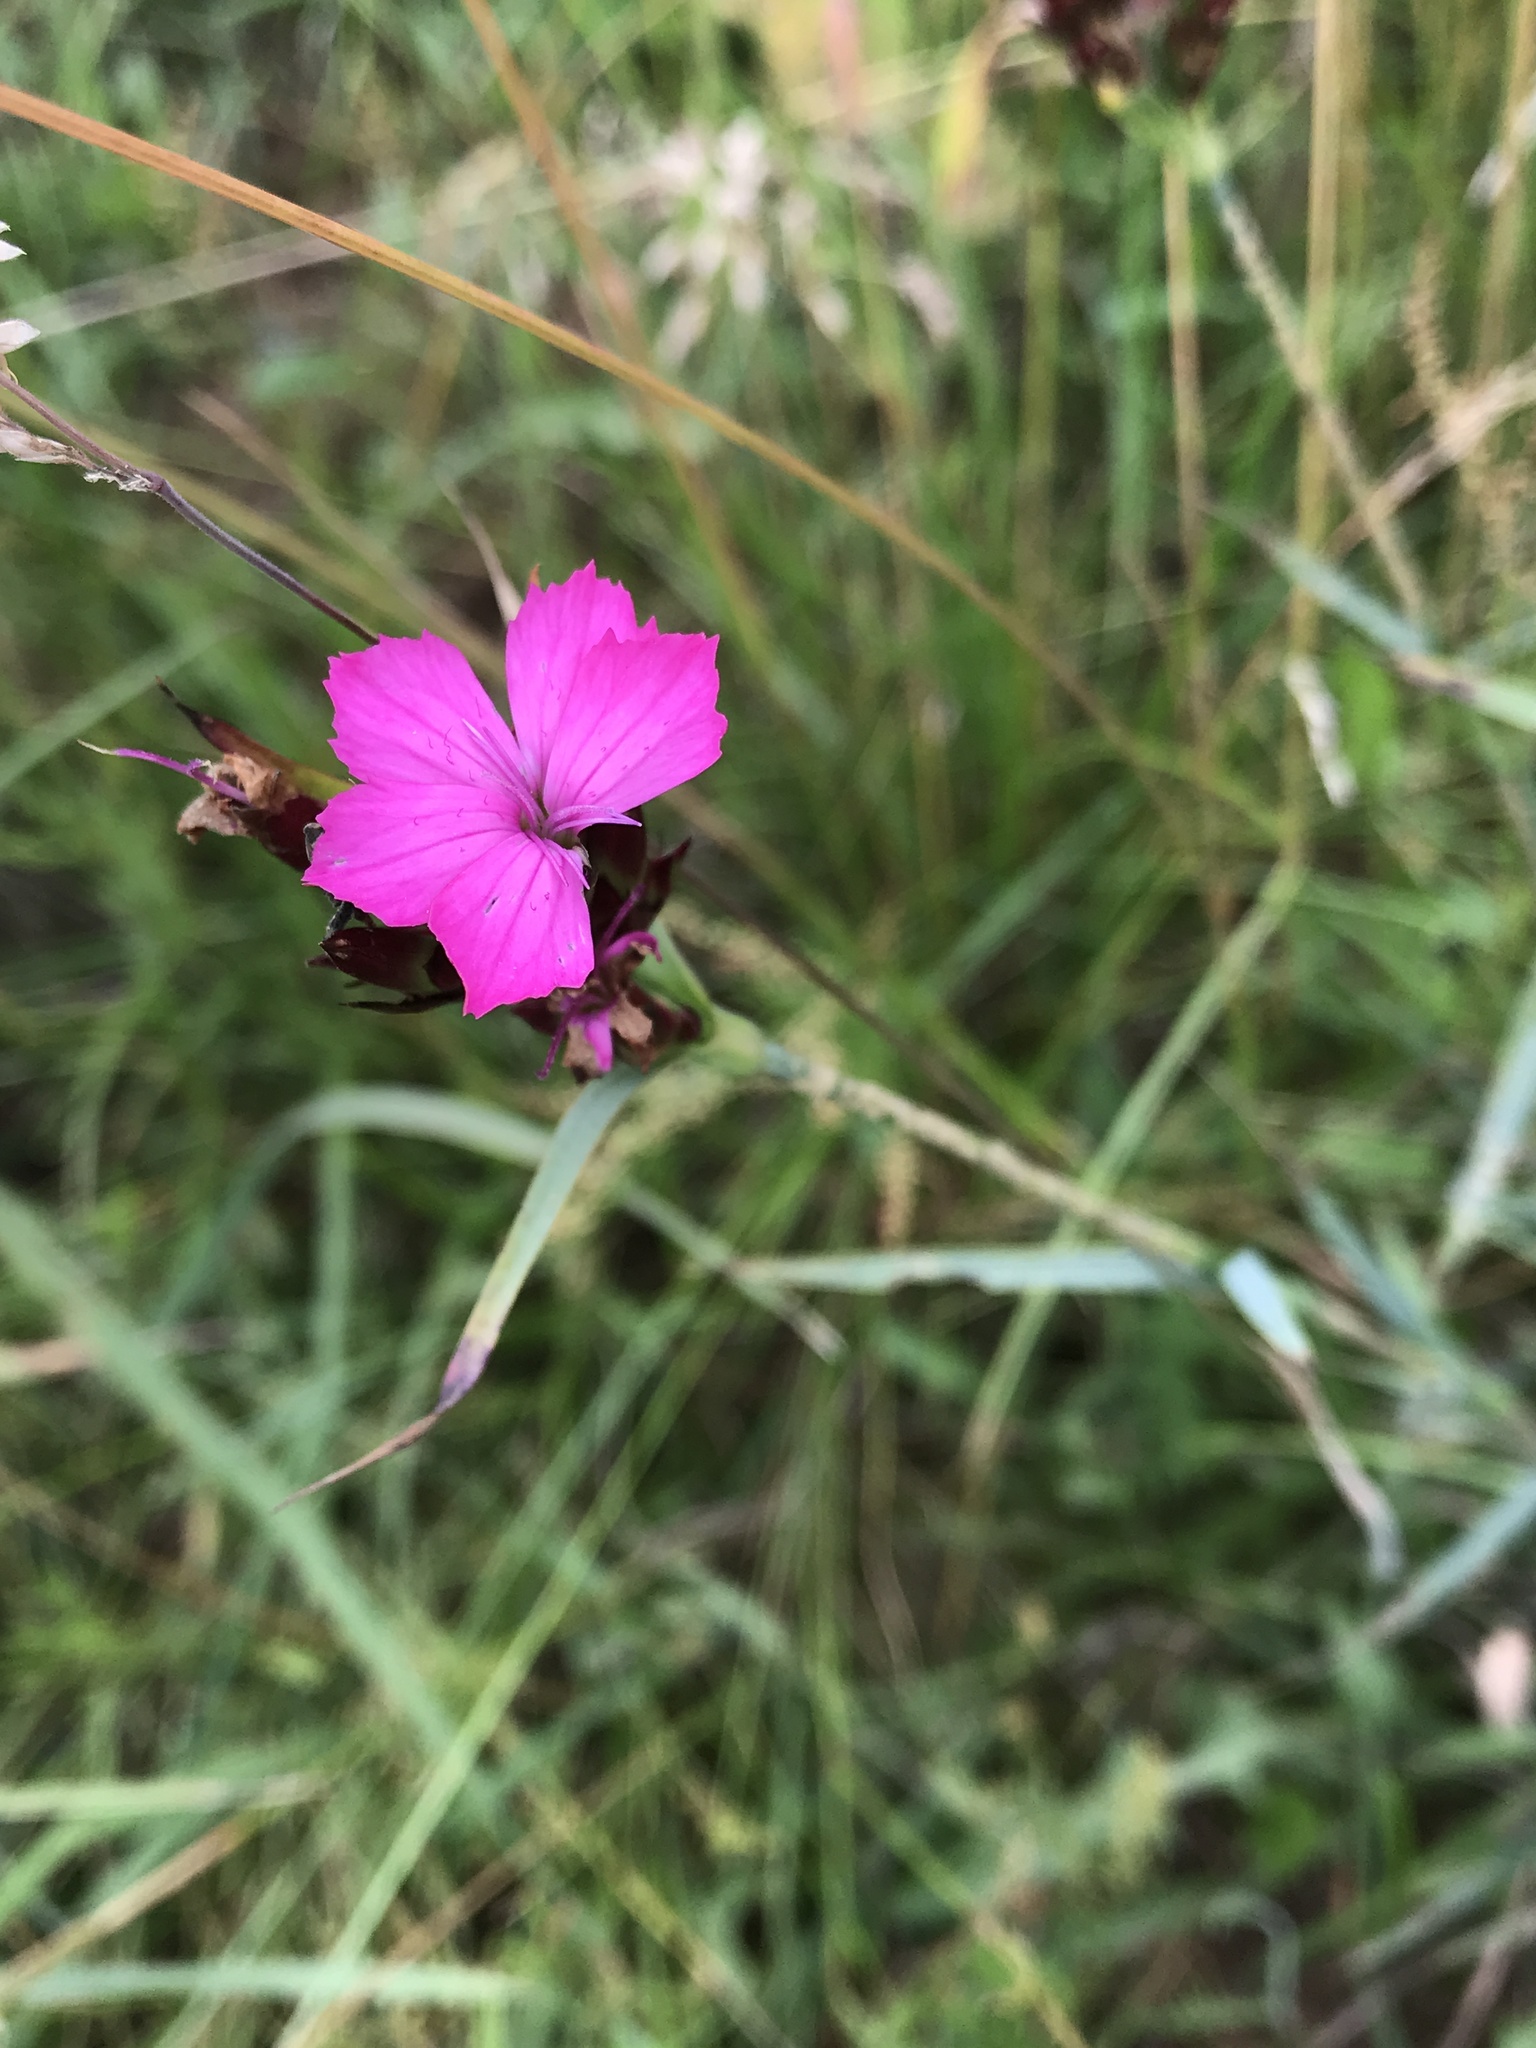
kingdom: Plantae
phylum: Tracheophyta
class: Magnoliopsida
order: Caryophyllales
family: Caryophyllaceae
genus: Dianthus
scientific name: Dianthus carthusianorum
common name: Carthusian pink
